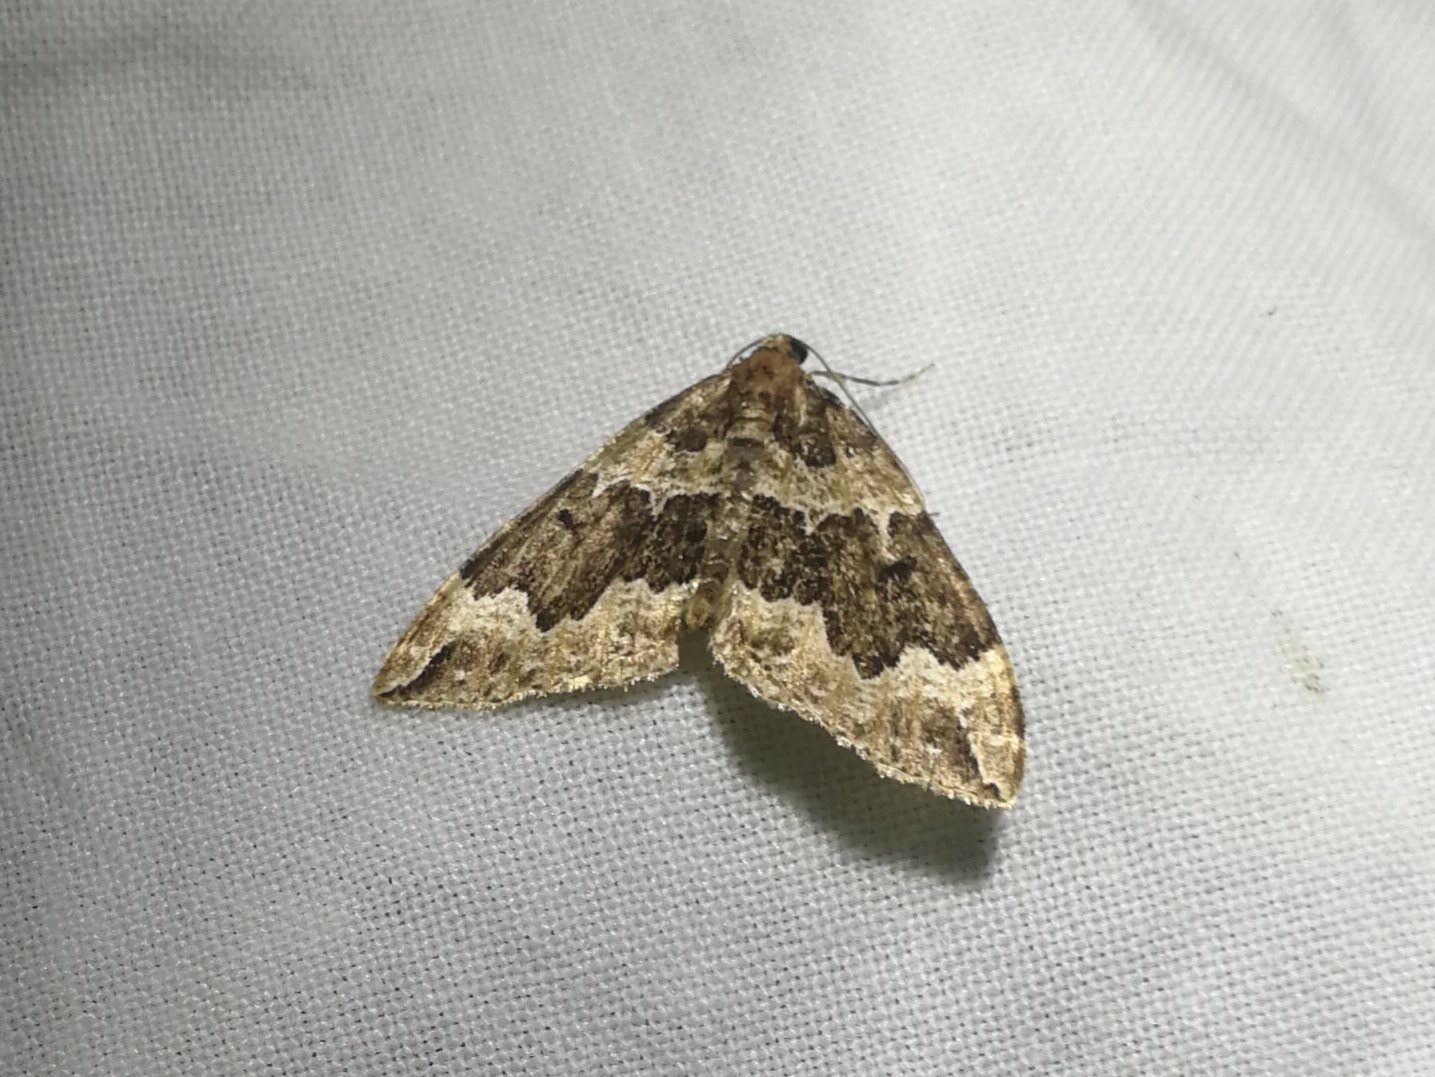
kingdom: Animalia
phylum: Arthropoda
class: Insecta
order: Lepidoptera
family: Geometridae
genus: Lampropteryx
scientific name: Lampropteryx suffumata
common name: Water carpet
